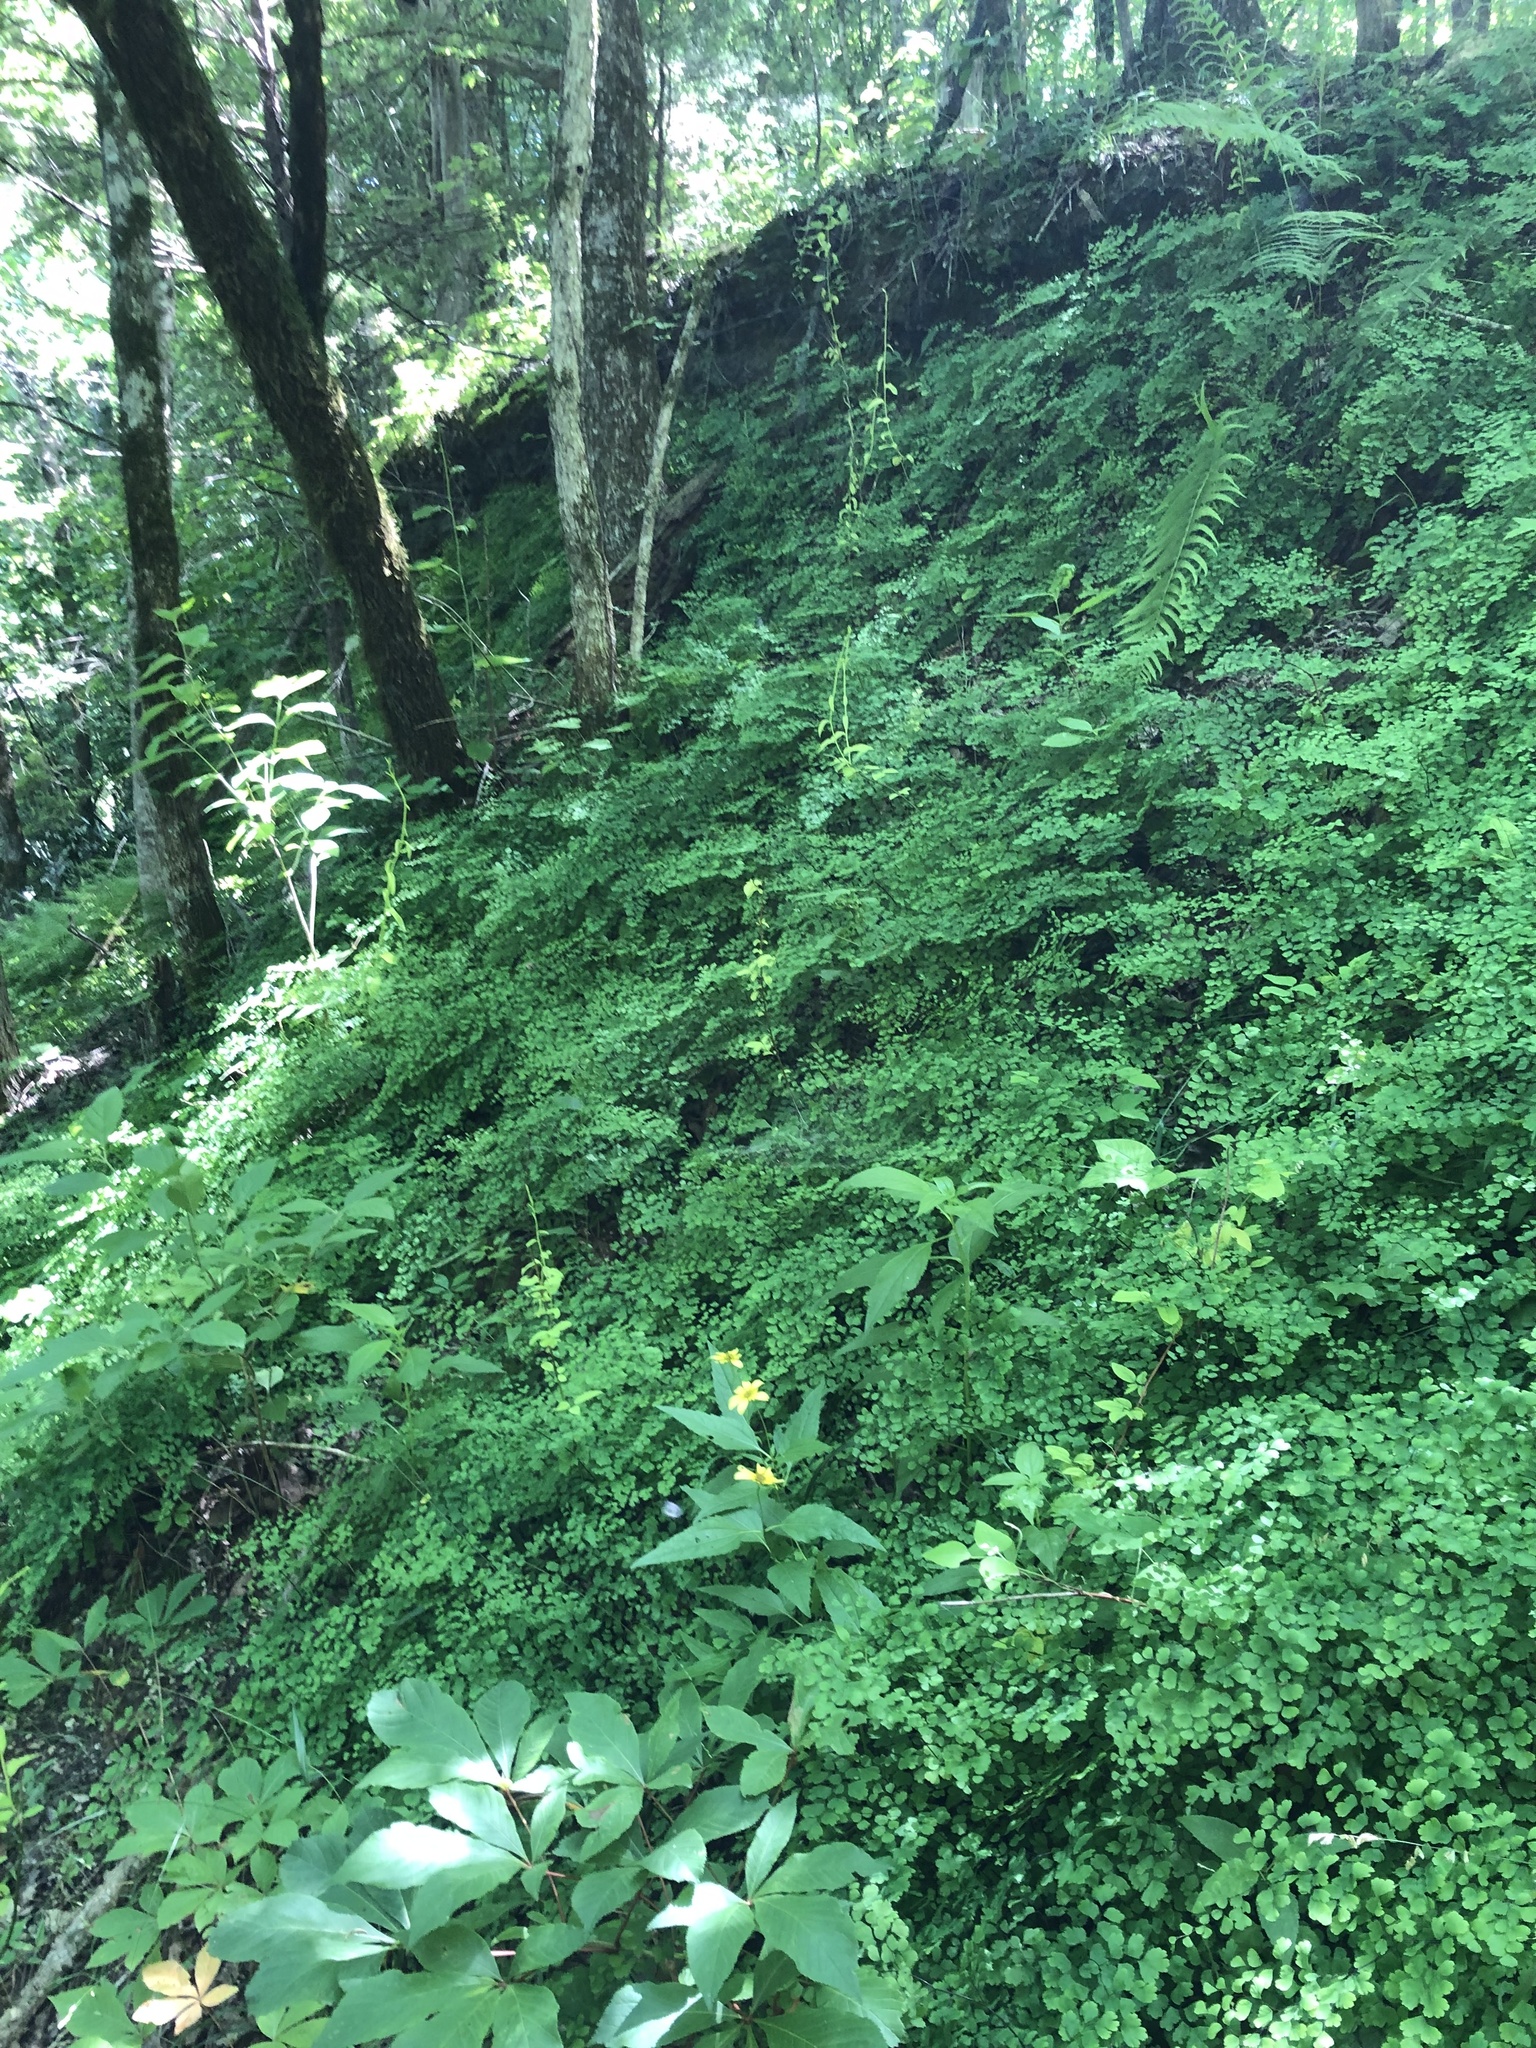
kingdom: Plantae
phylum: Tracheophyta
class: Polypodiopsida
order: Polypodiales
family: Pteridaceae
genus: Adiantum
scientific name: Adiantum capillus-veneris
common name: Maidenhair fern
